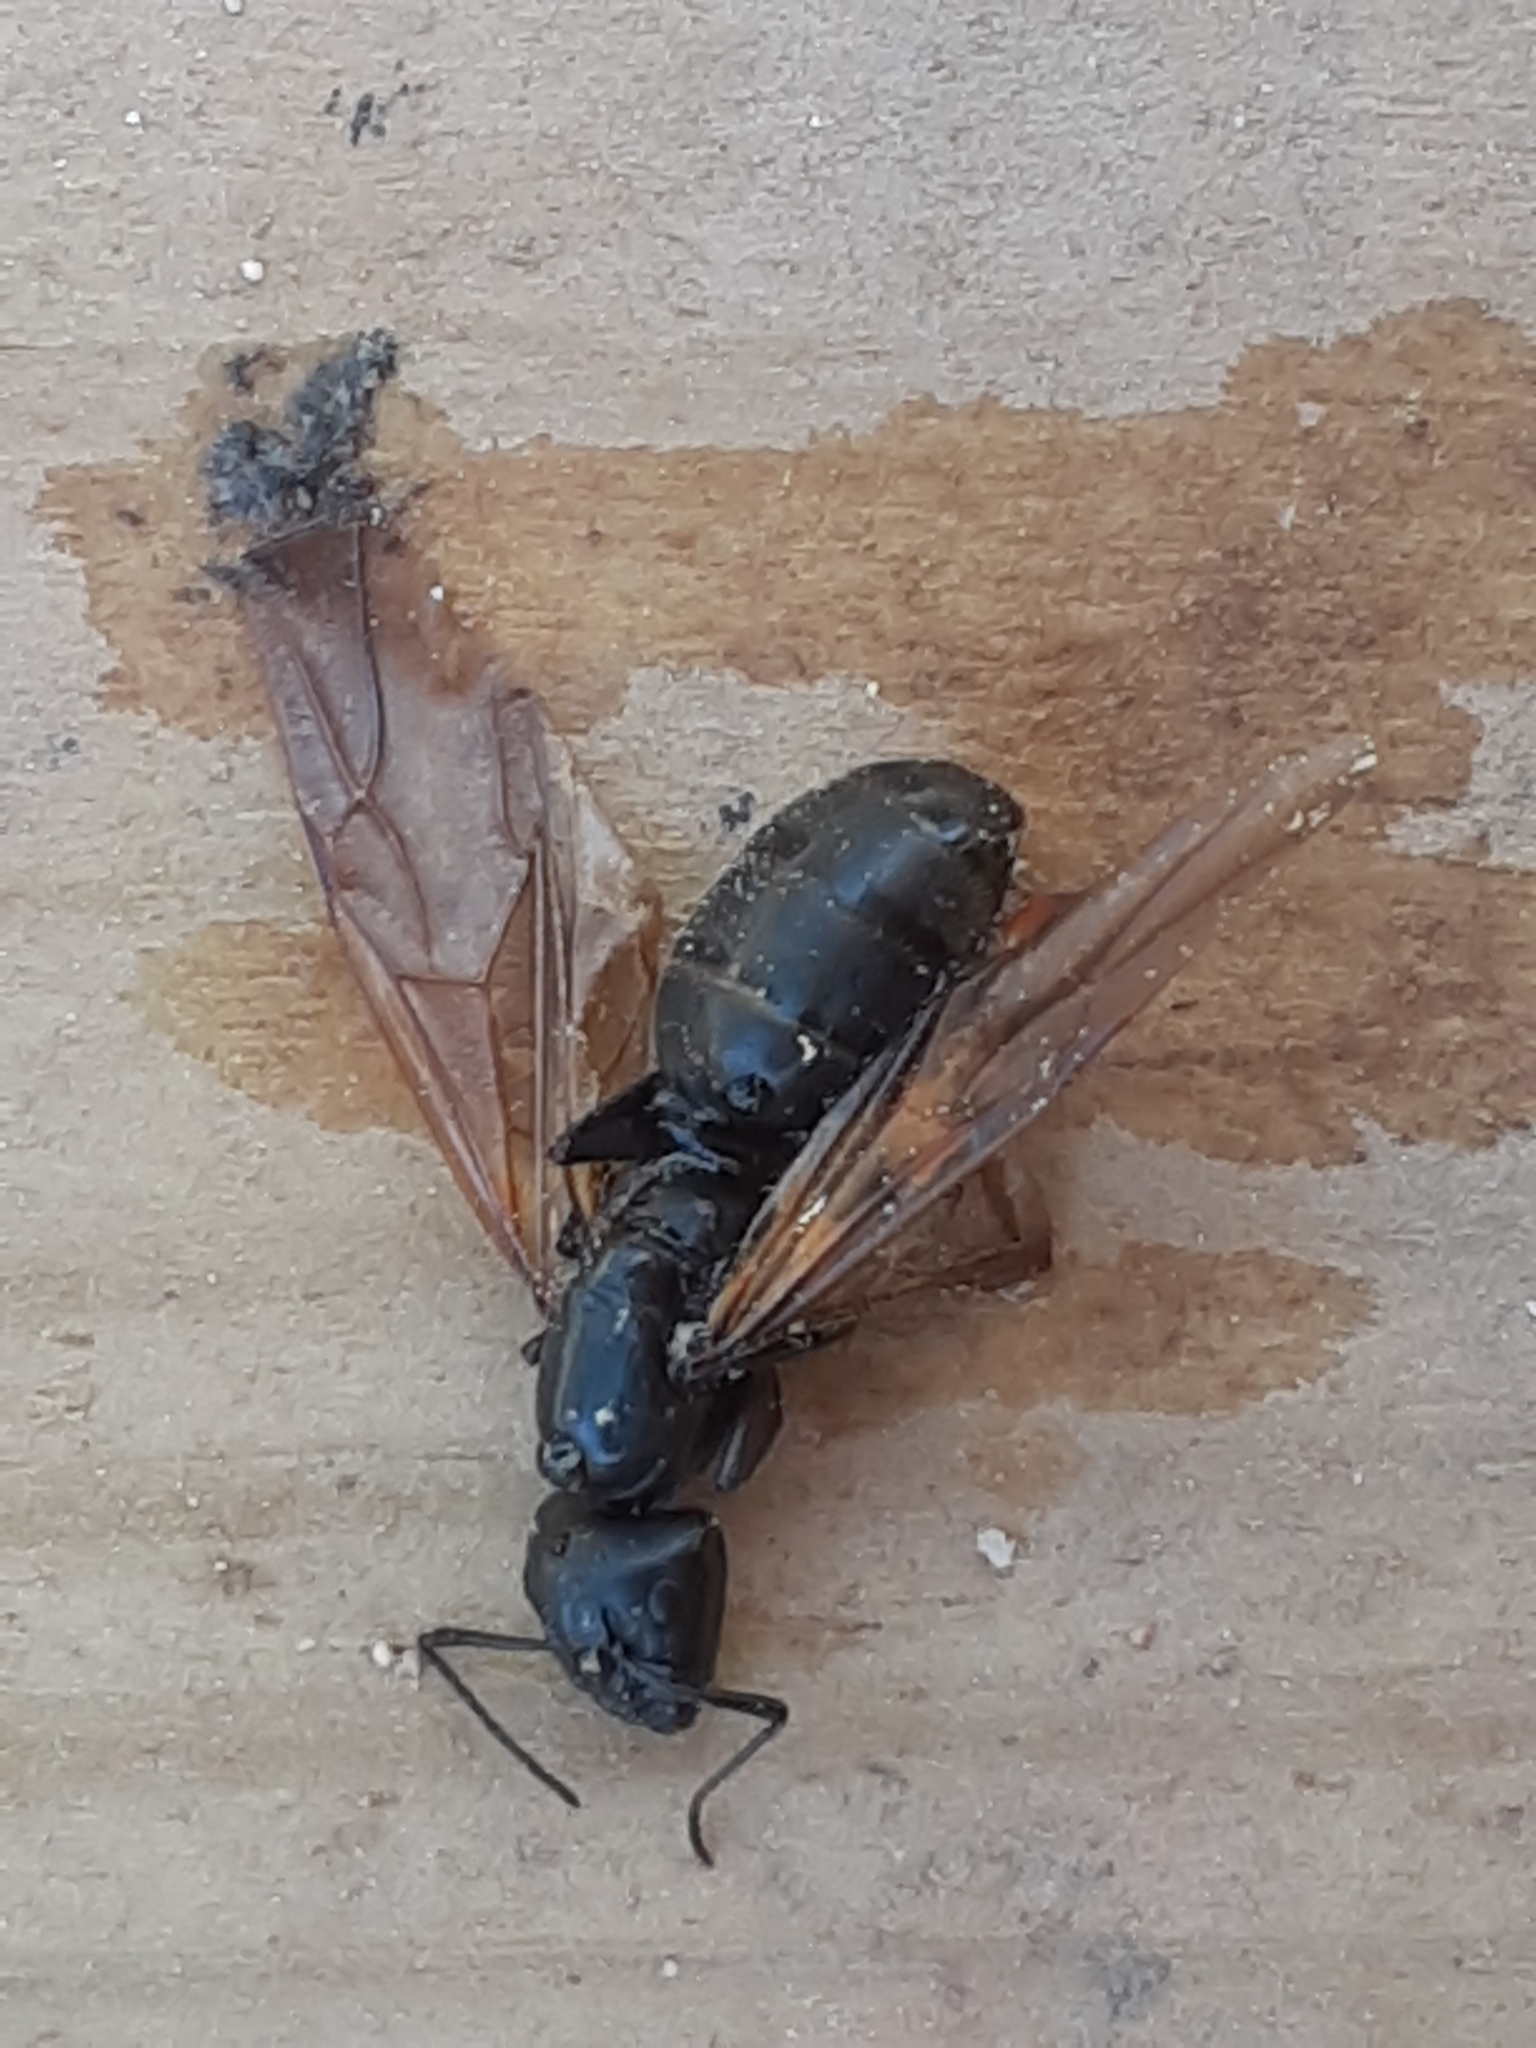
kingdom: Animalia
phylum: Arthropoda
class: Insecta
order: Hymenoptera
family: Formicidae
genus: Camponotus
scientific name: Camponotus pennsylvanicus
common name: Black carpenter ant
